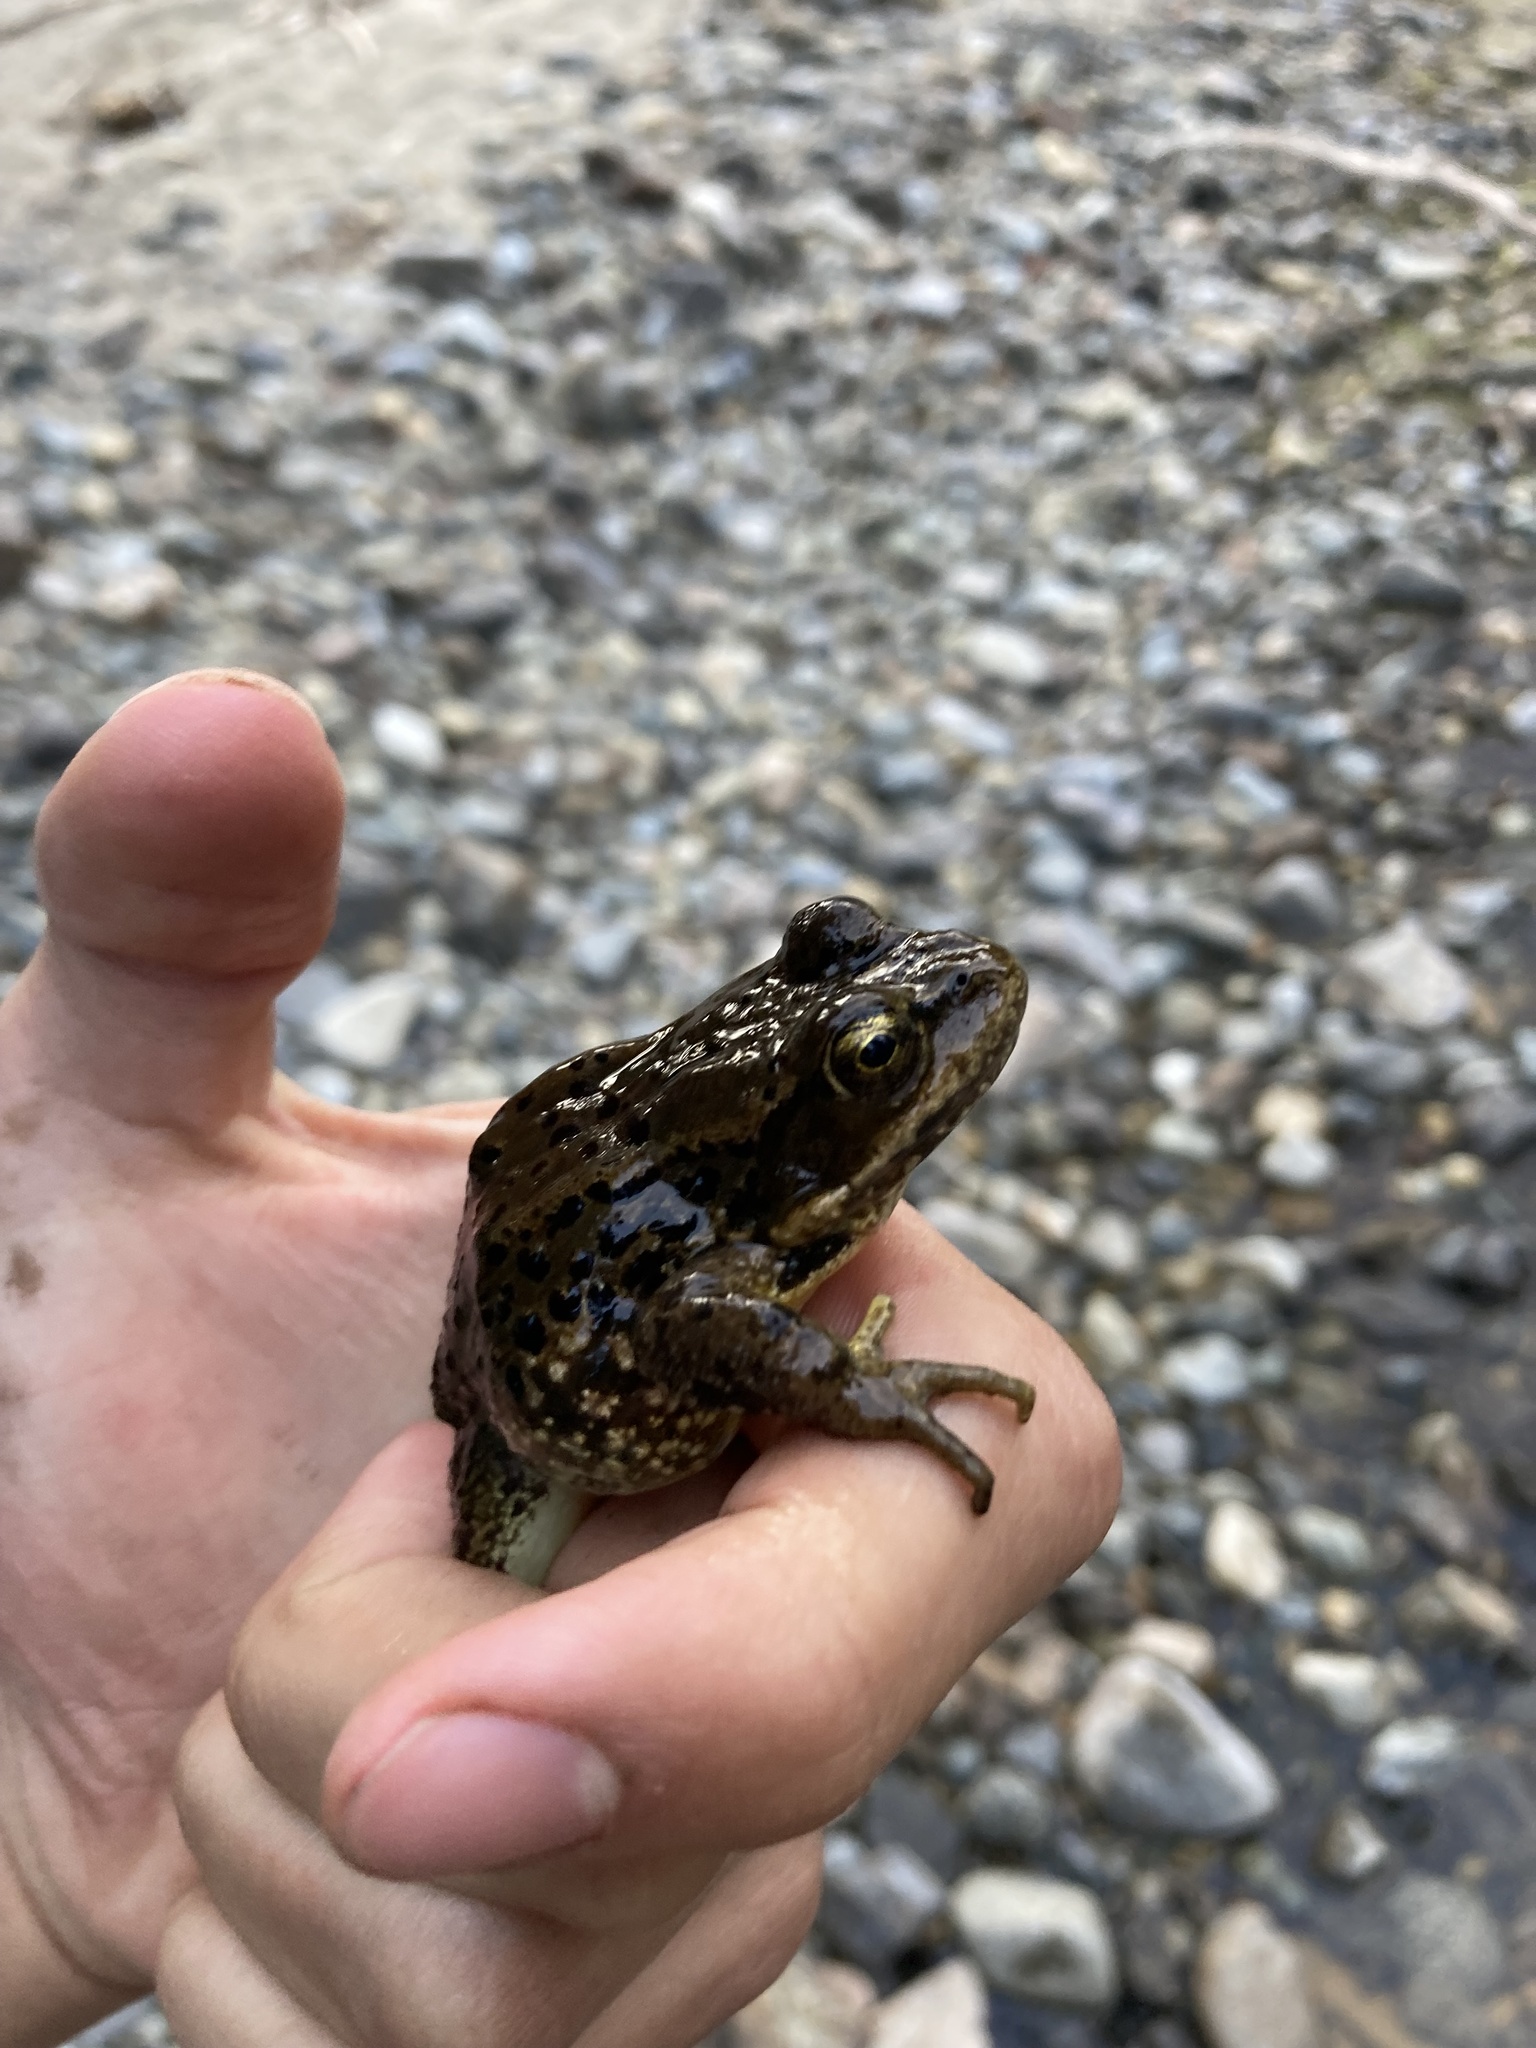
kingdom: Animalia
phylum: Chordata
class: Amphibia
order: Anura
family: Ranidae
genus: Rana
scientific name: Rana cascadae
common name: Cascades frog
